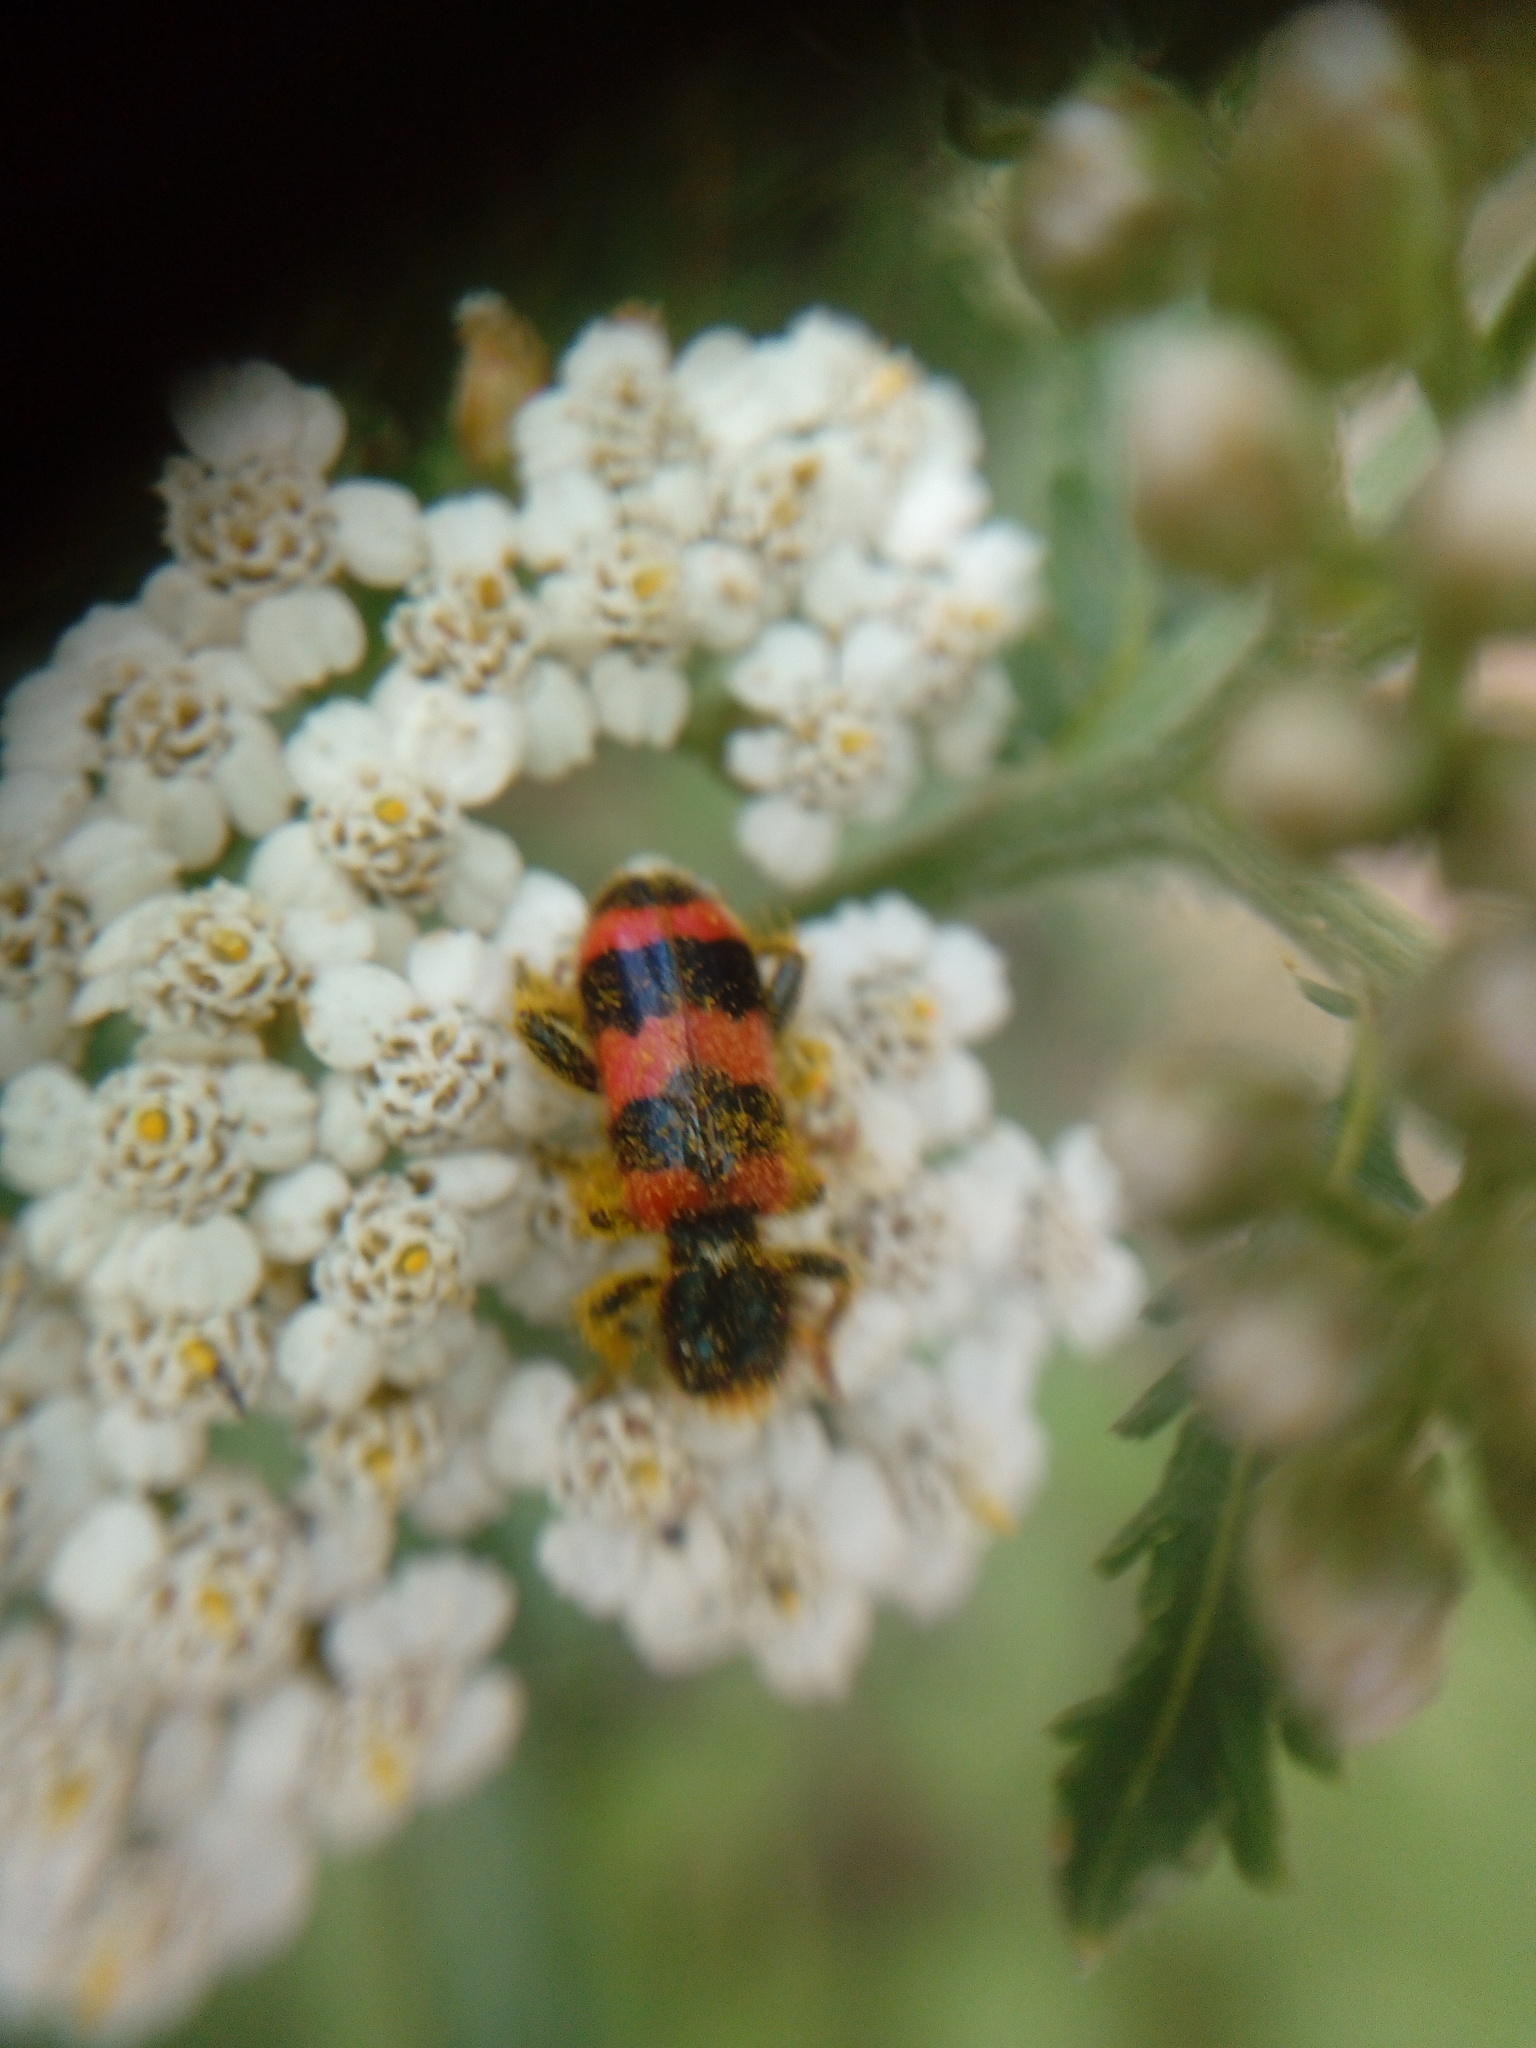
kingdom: Animalia
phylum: Arthropoda
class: Insecta
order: Coleoptera
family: Cleridae
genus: Trichodes
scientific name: Trichodes apiarius
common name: Bee-eating beetle
